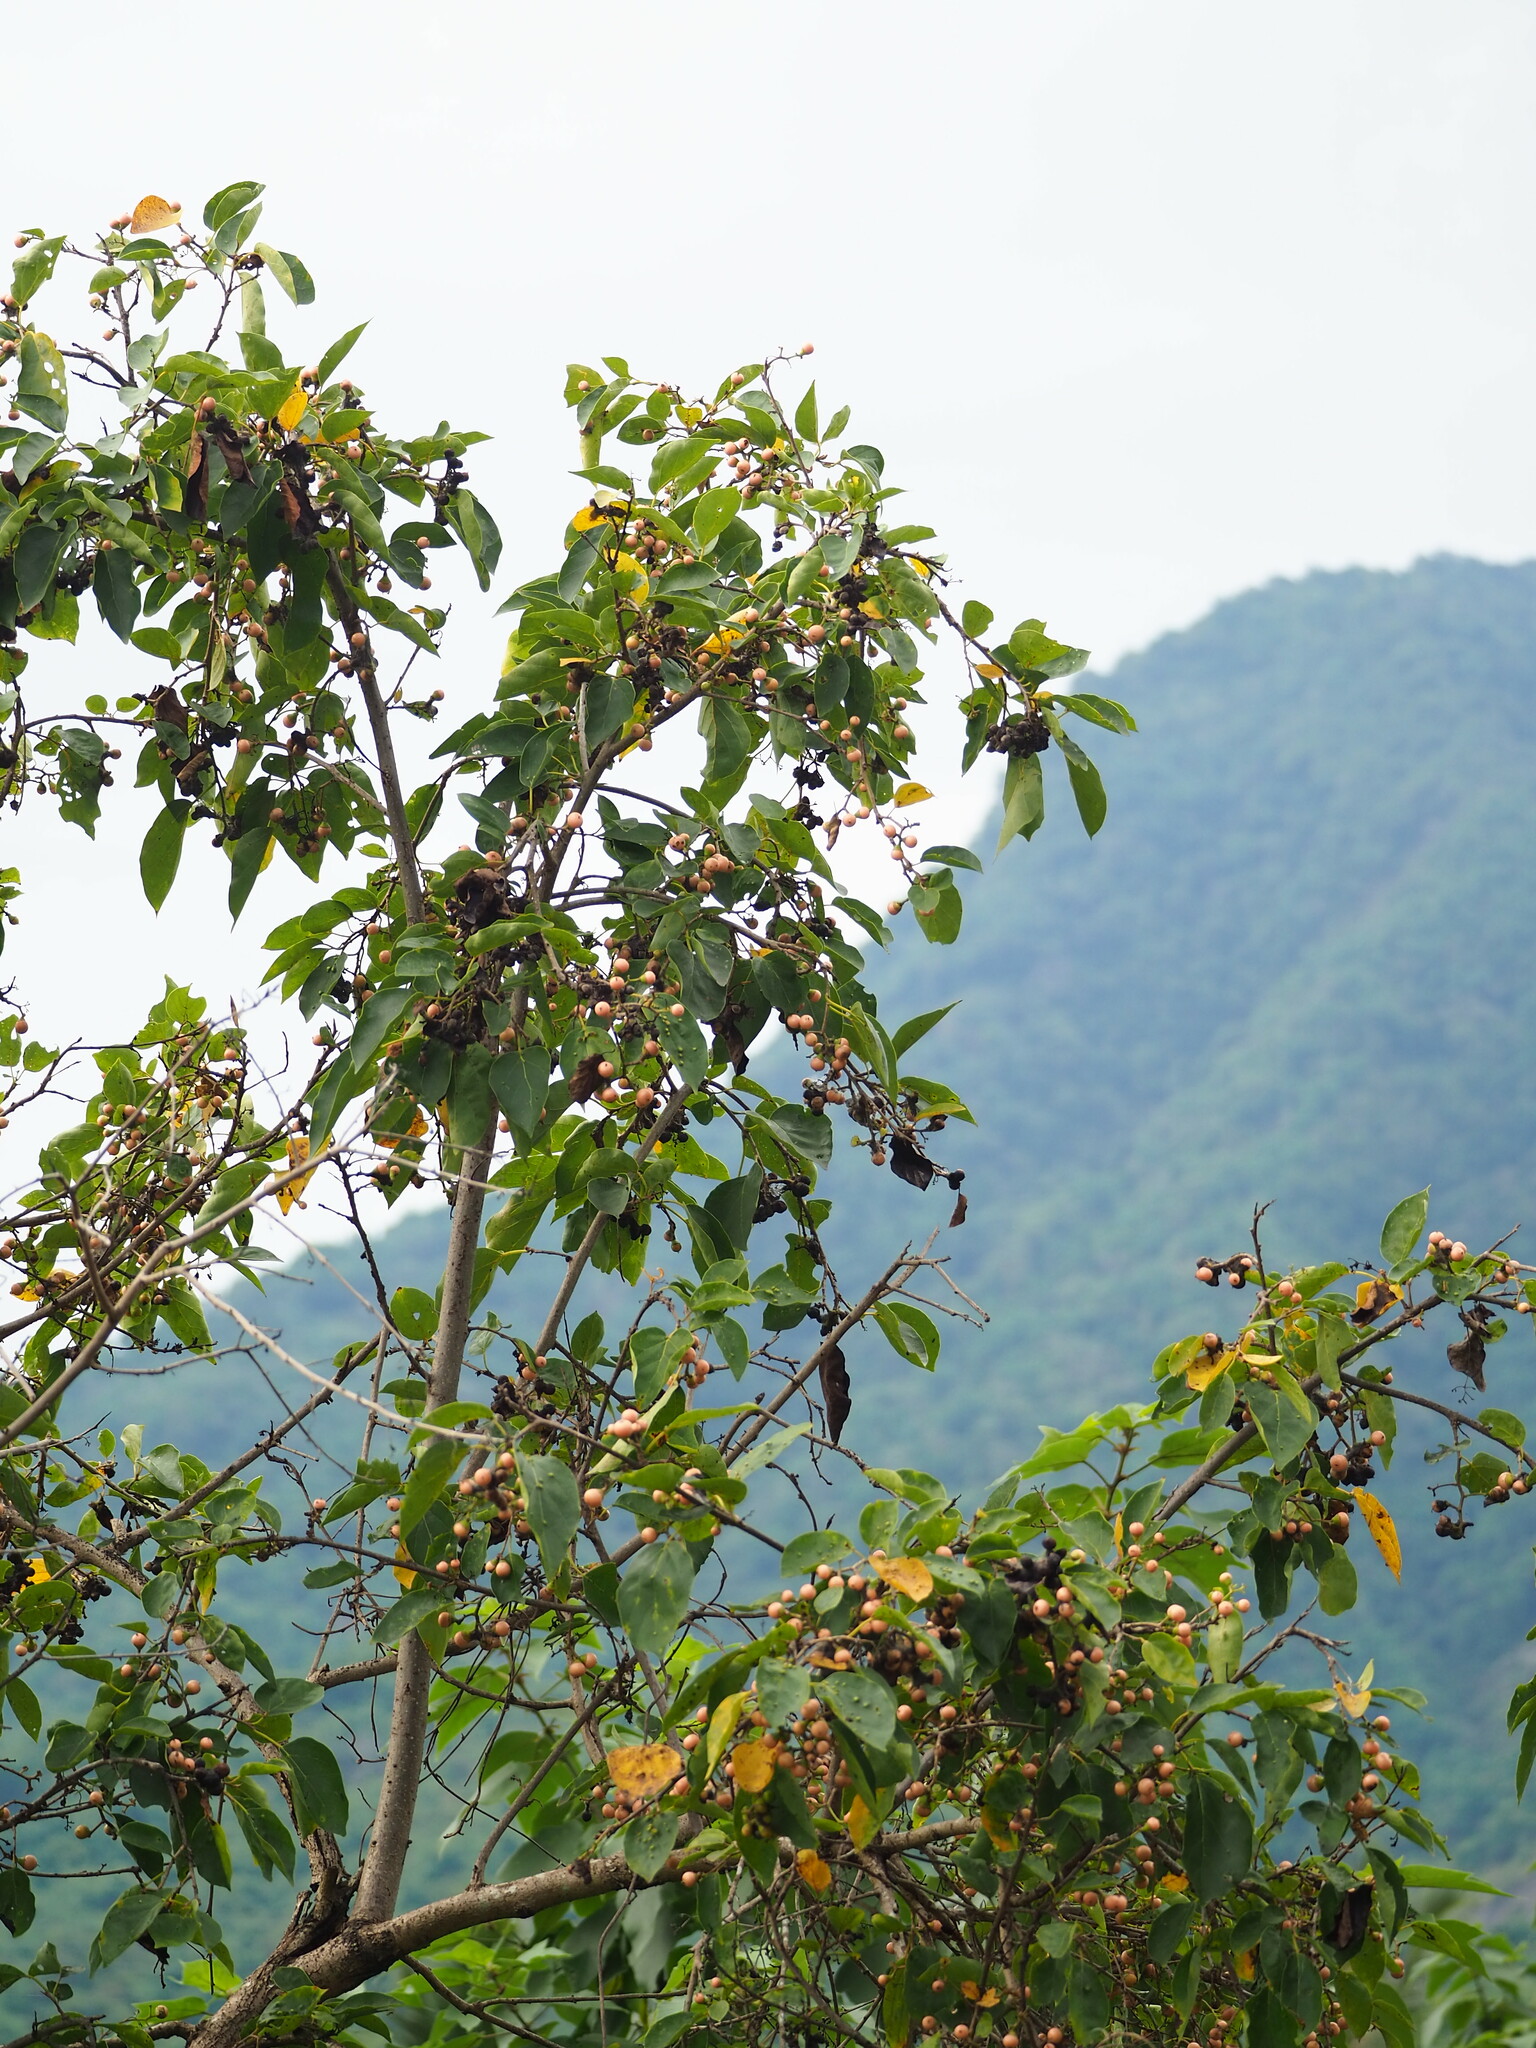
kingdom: Plantae
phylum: Tracheophyta
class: Magnoliopsida
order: Boraginales
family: Cordiaceae
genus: Cordia
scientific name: Cordia dichotoma
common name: Fragrant manjack
